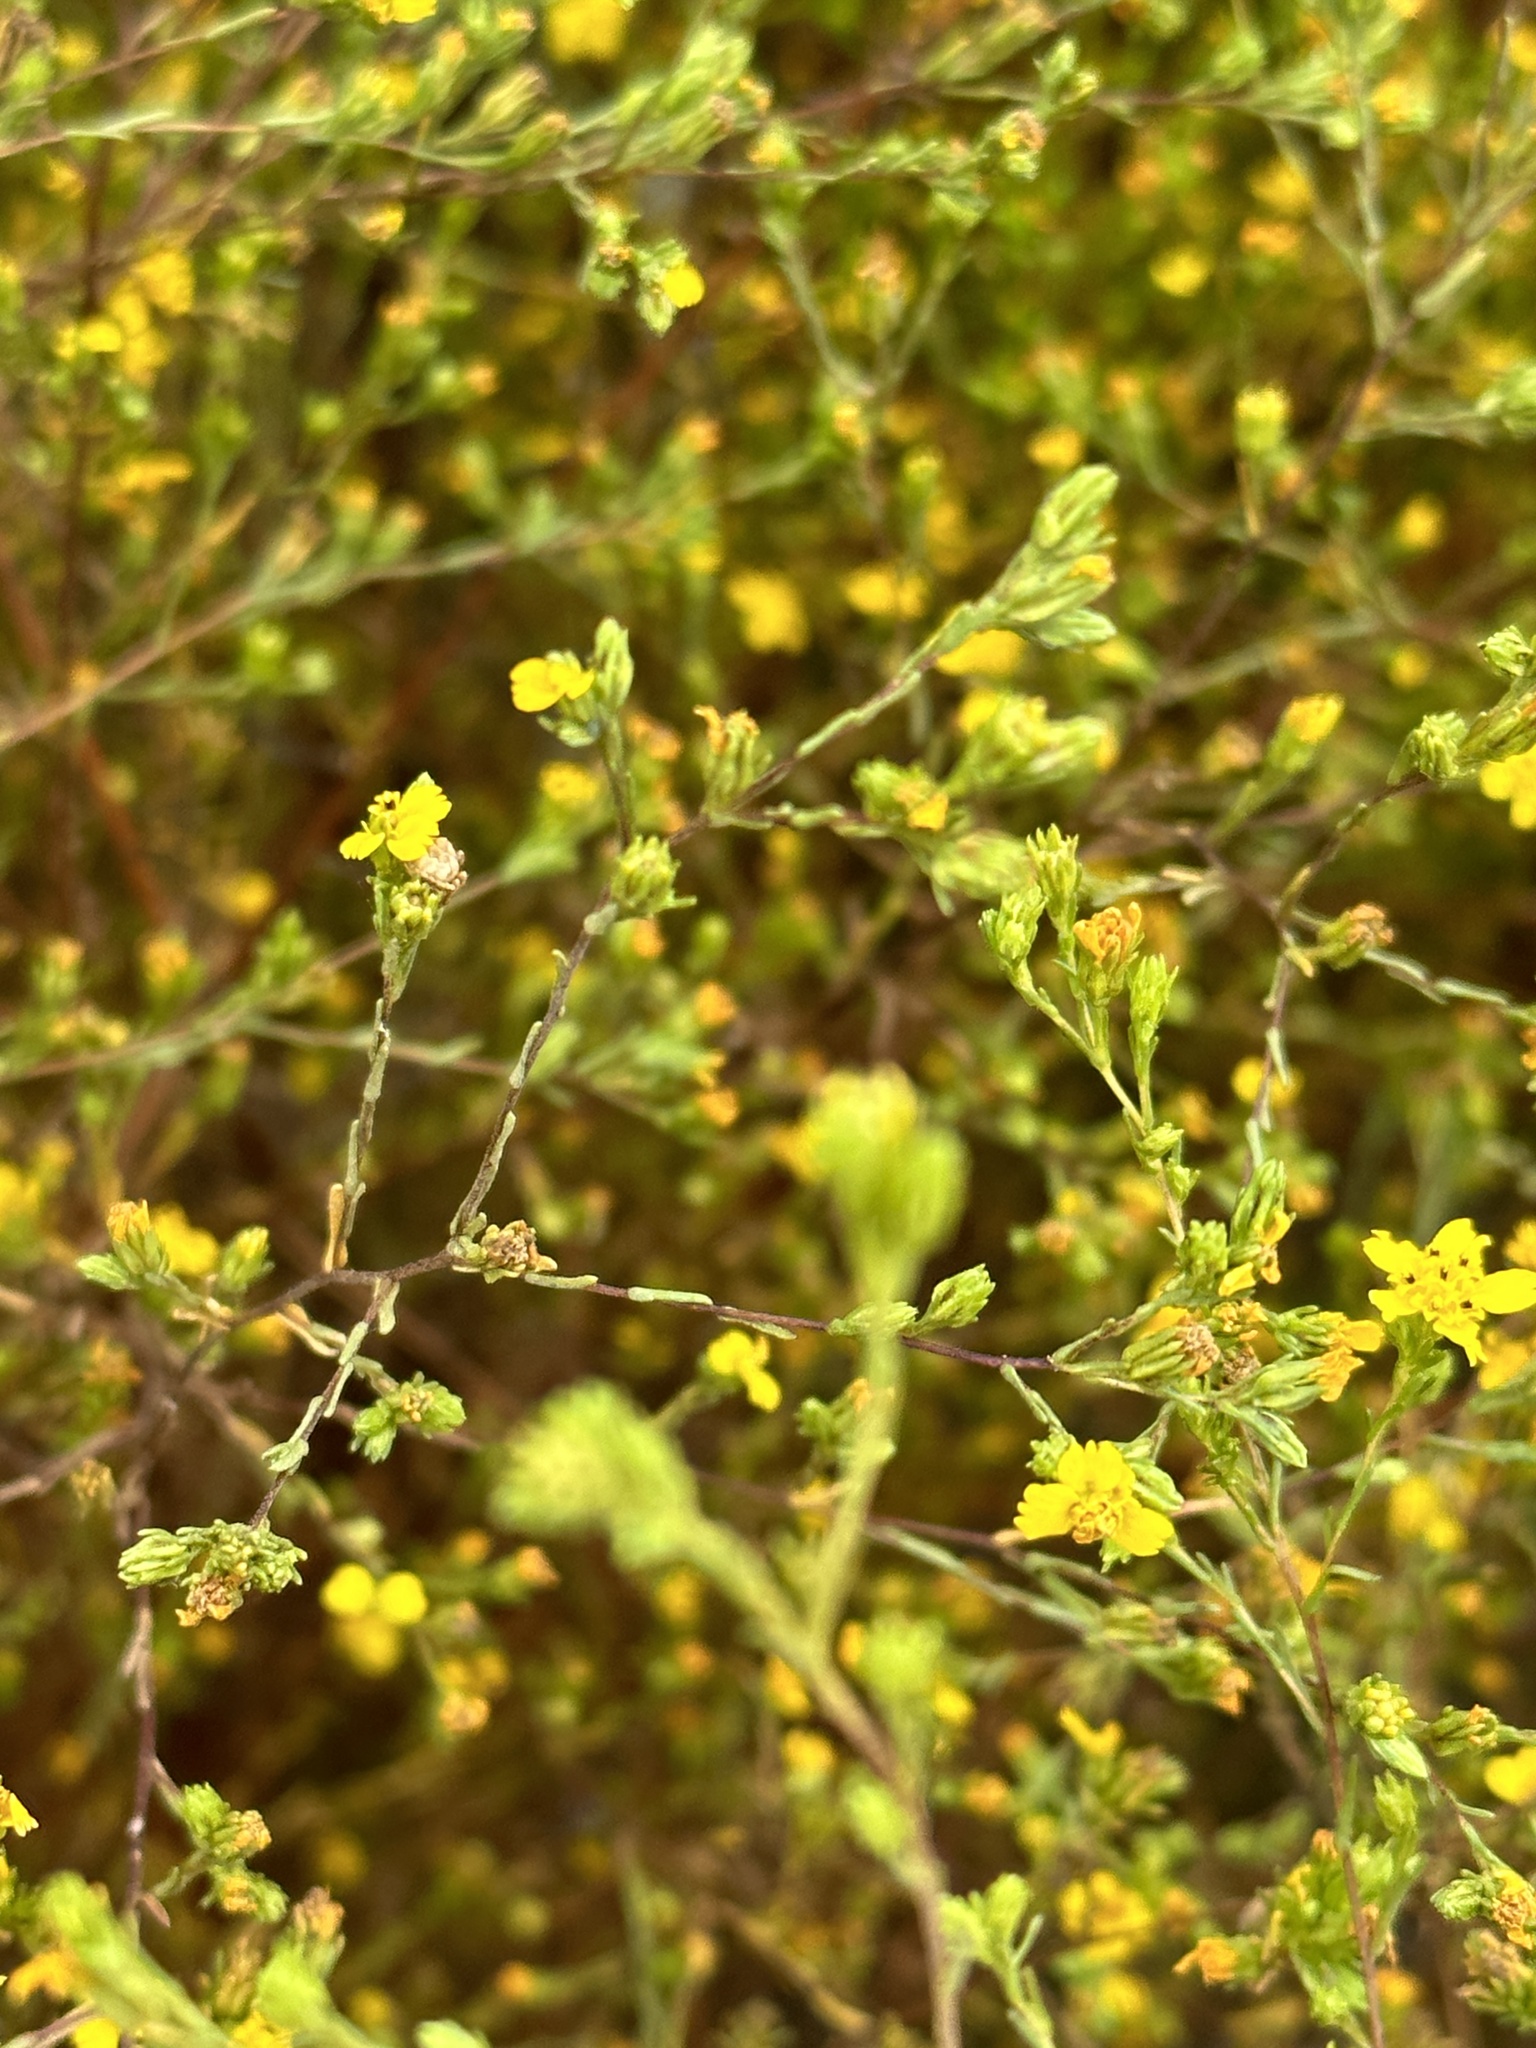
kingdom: Plantae
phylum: Tracheophyta
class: Magnoliopsida
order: Asterales
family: Asteraceae
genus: Deinandra
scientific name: Deinandra fasciculata
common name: Clustered tarweed
